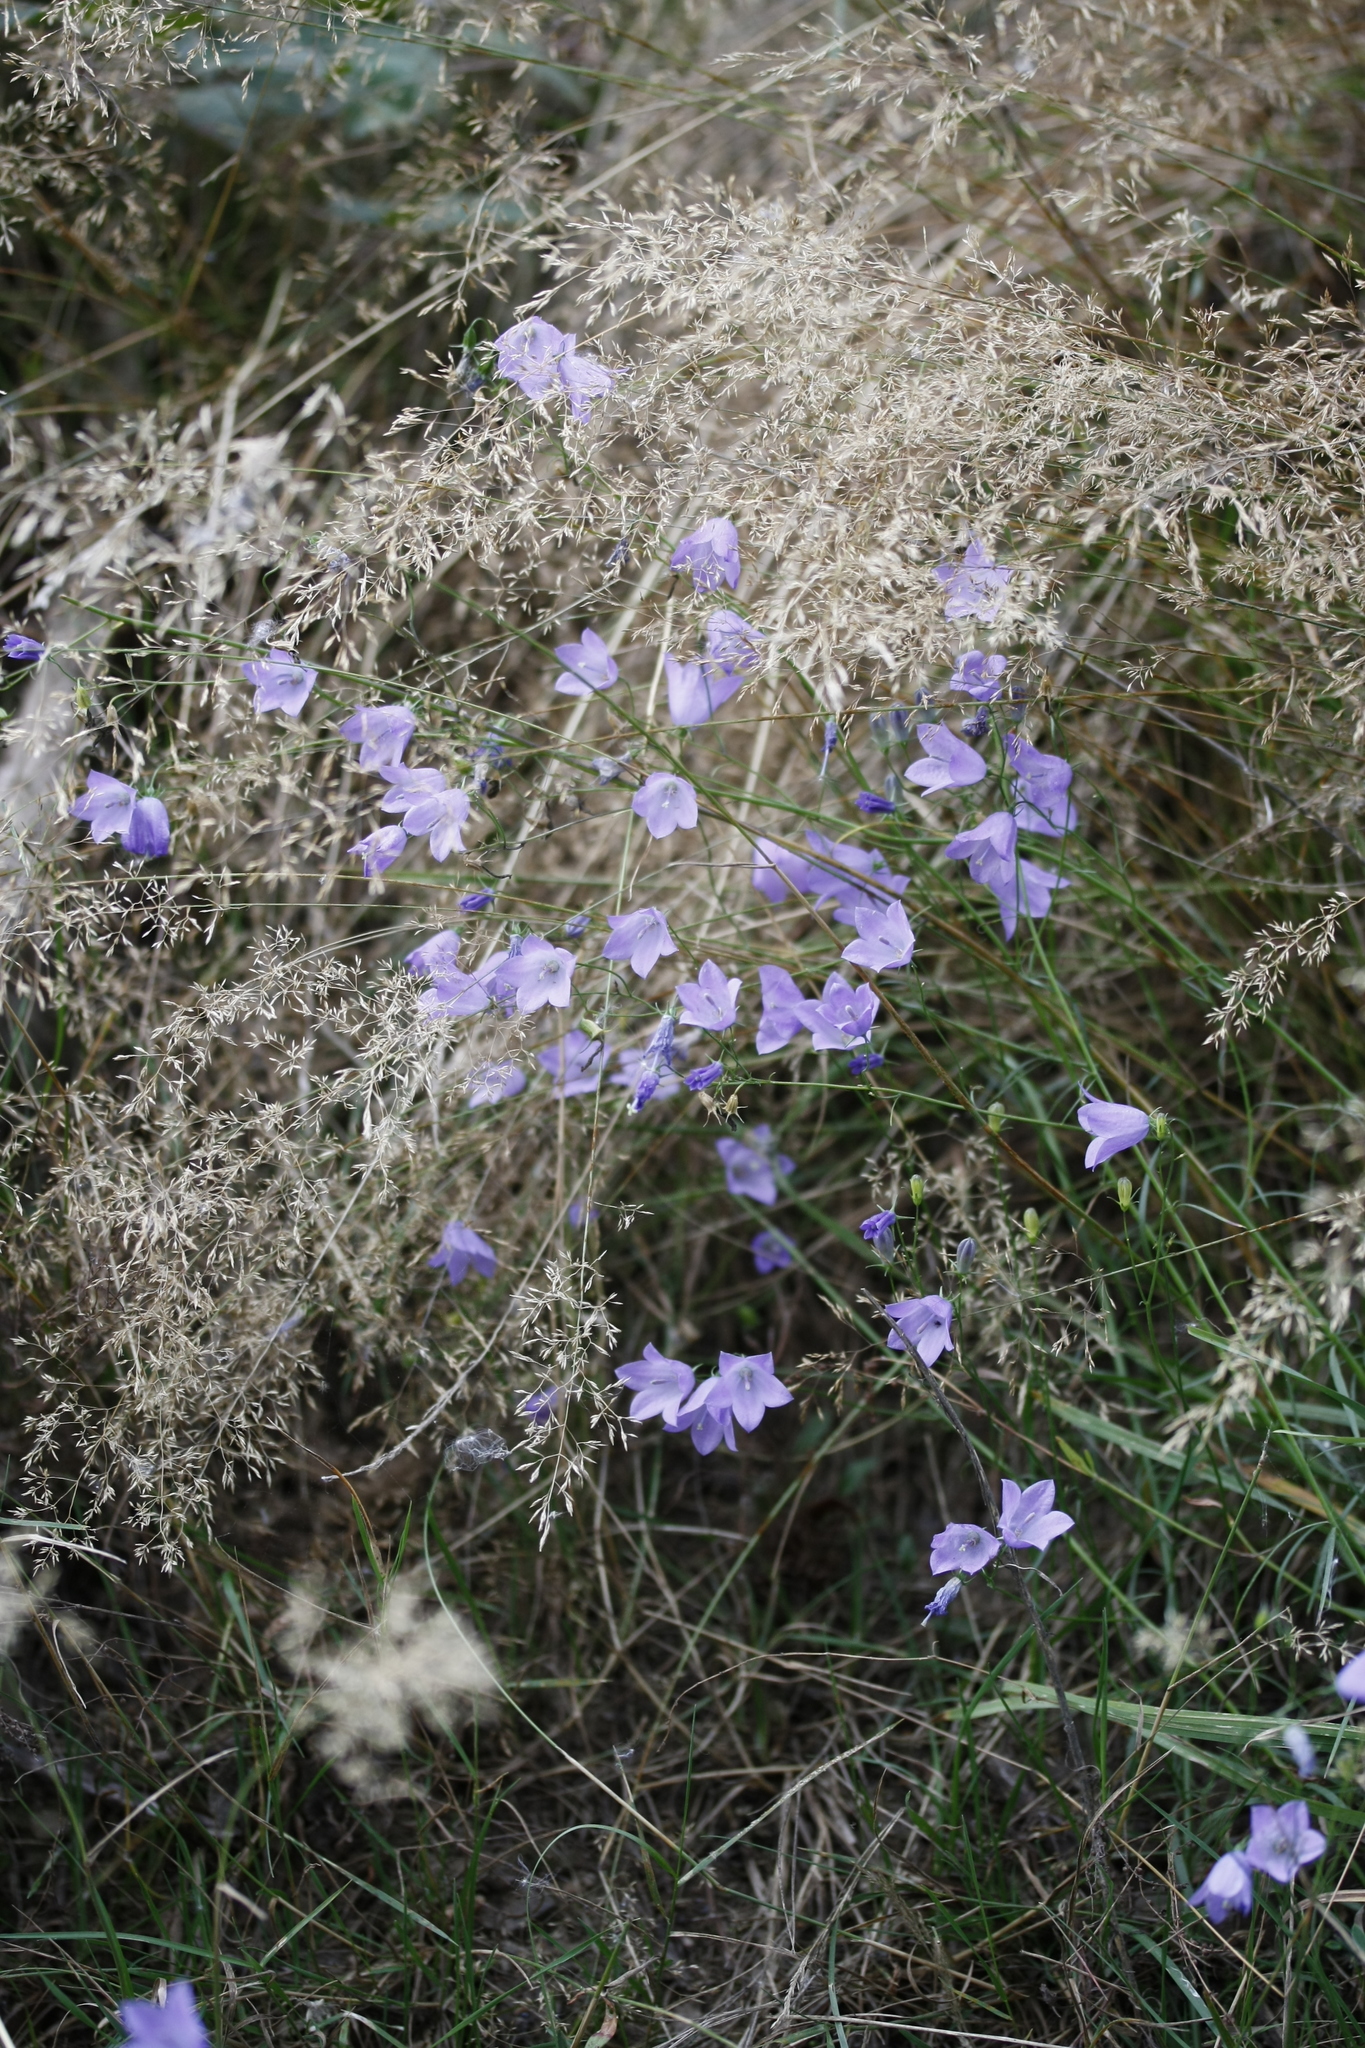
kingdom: Plantae
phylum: Tracheophyta
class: Magnoliopsida
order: Asterales
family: Campanulaceae
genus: Campanula
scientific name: Campanula rotundifolia
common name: Harebell
